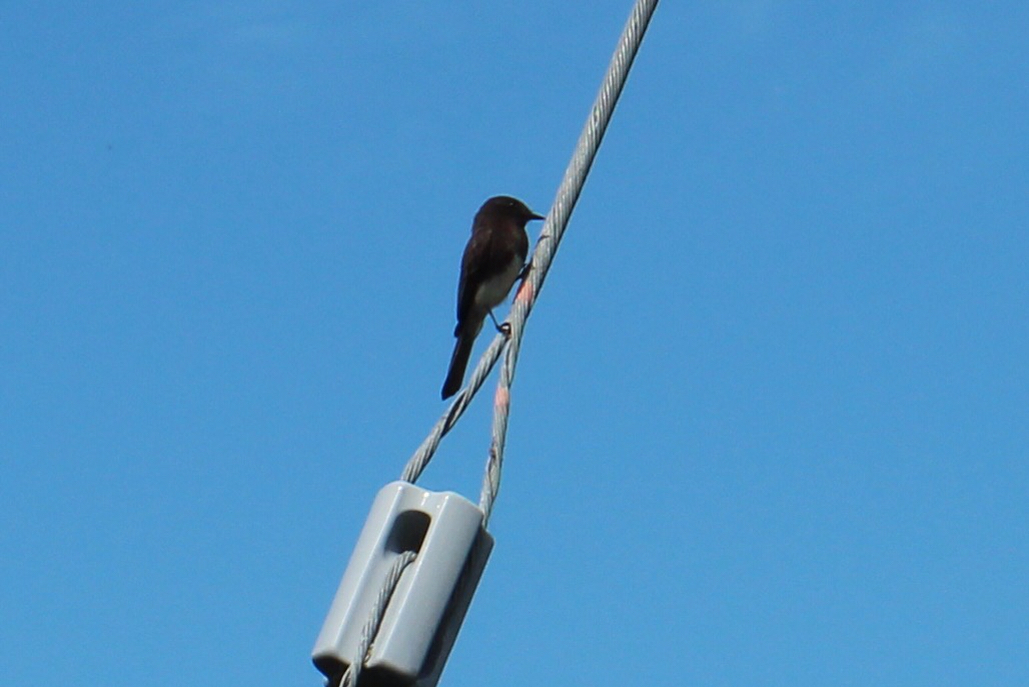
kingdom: Animalia
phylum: Chordata
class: Aves
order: Passeriformes
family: Tyrannidae
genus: Sayornis
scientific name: Sayornis nigricans
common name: Black phoebe
